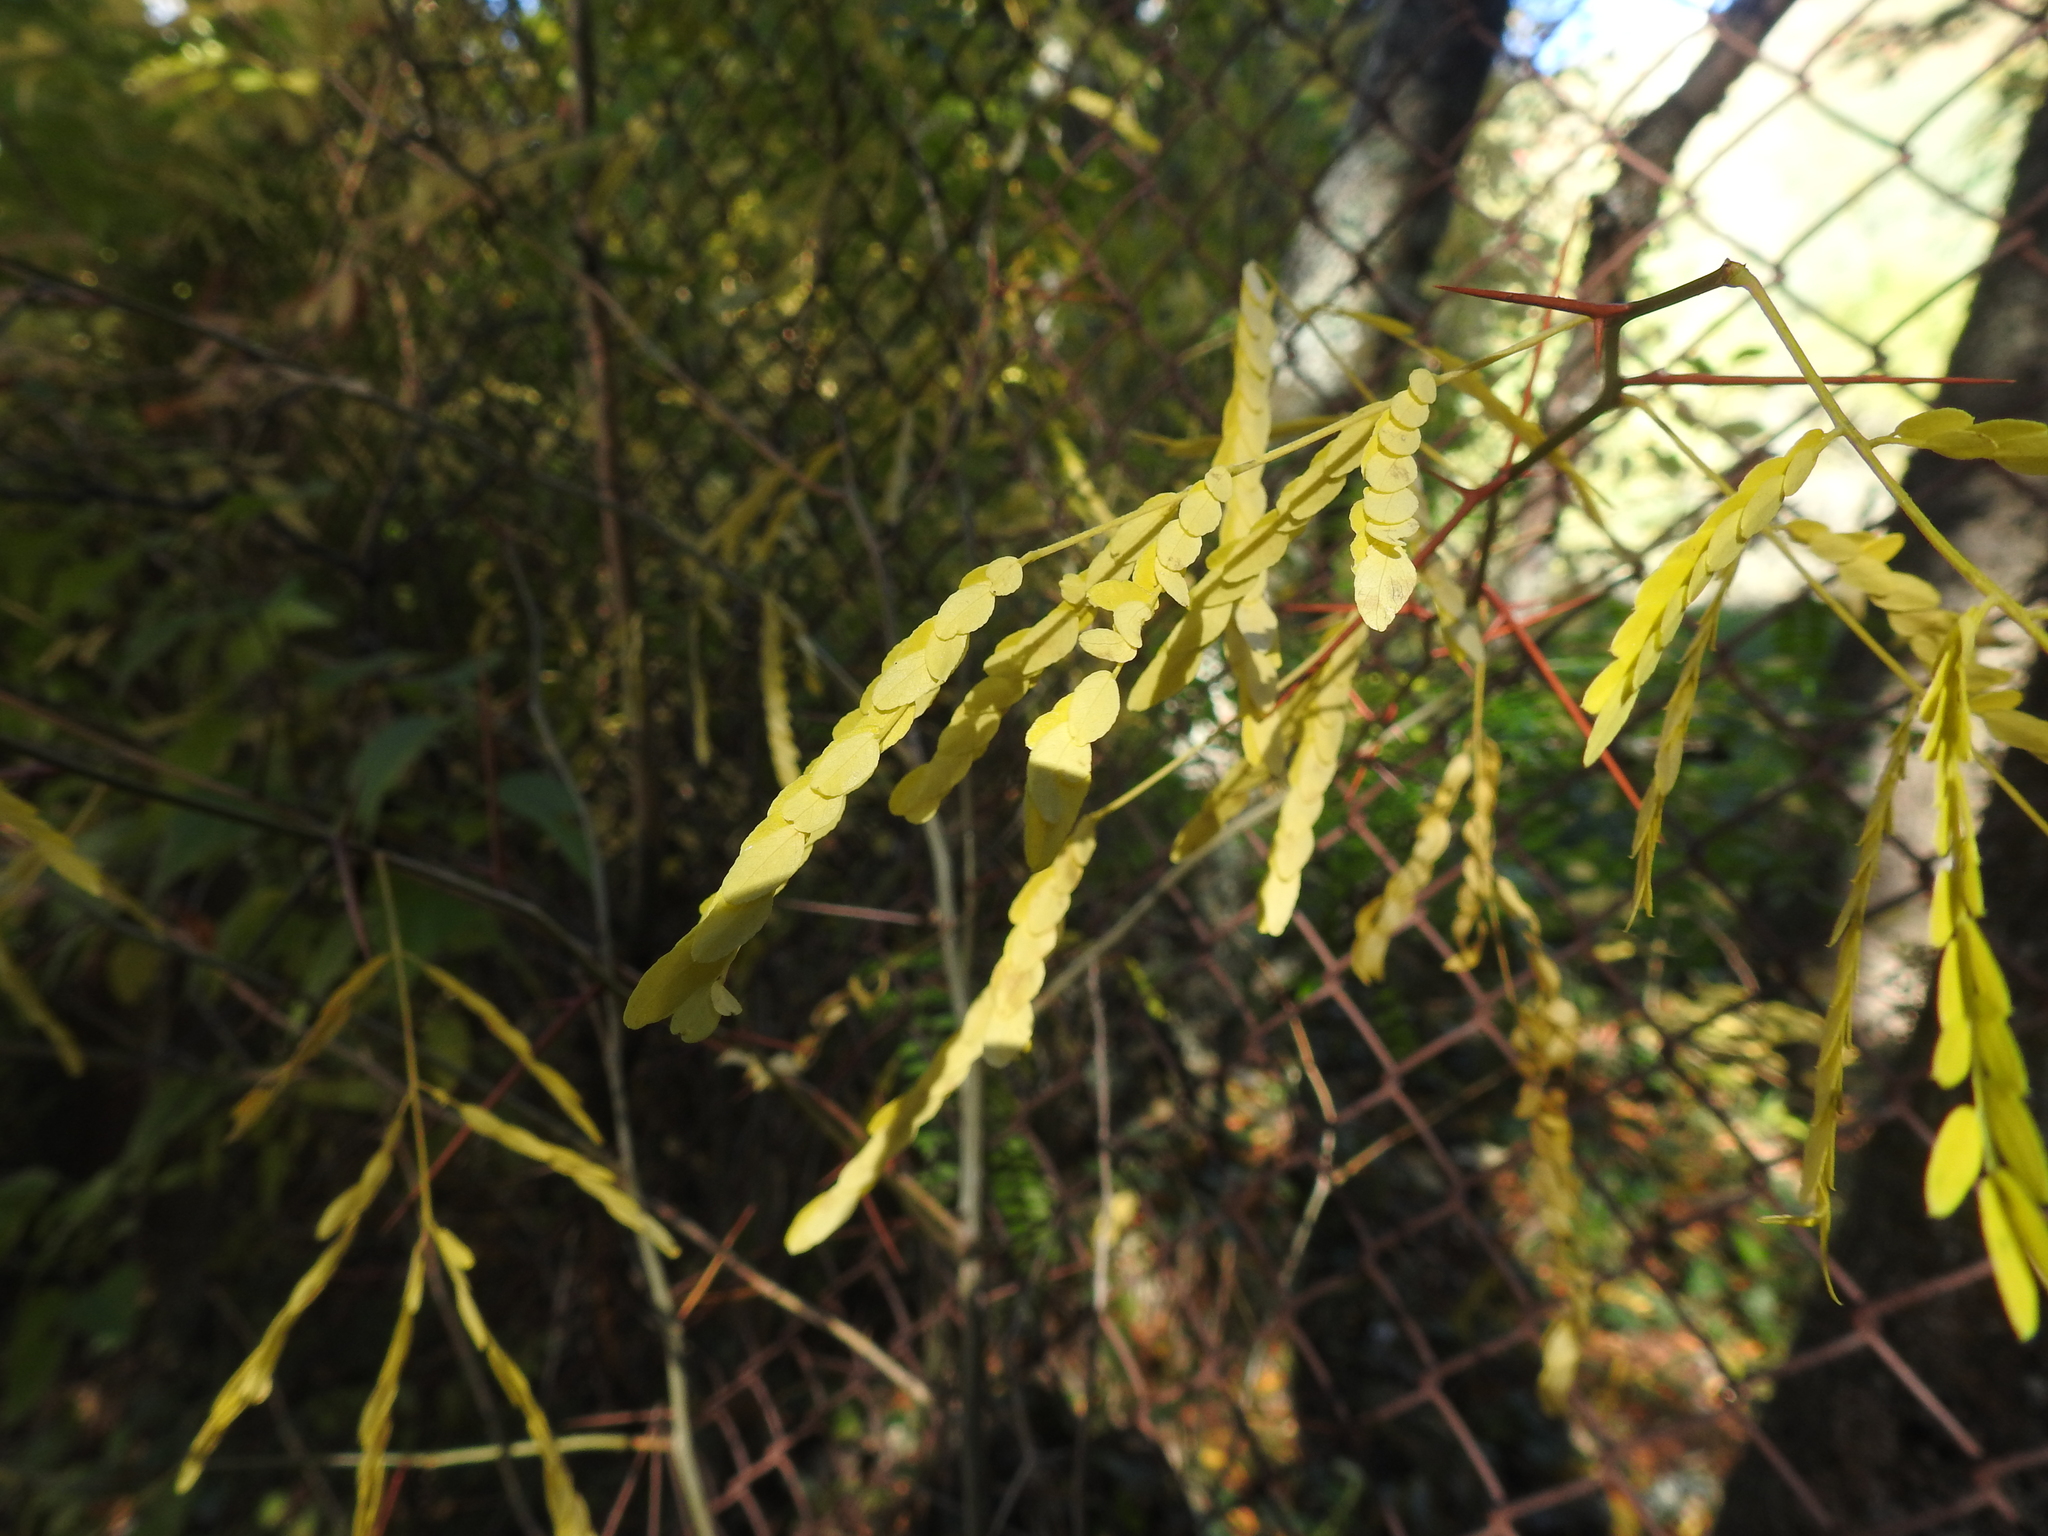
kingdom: Plantae
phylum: Tracheophyta
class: Magnoliopsida
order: Fabales
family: Fabaceae
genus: Robinia
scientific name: Robinia pseudoacacia
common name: Black locust
